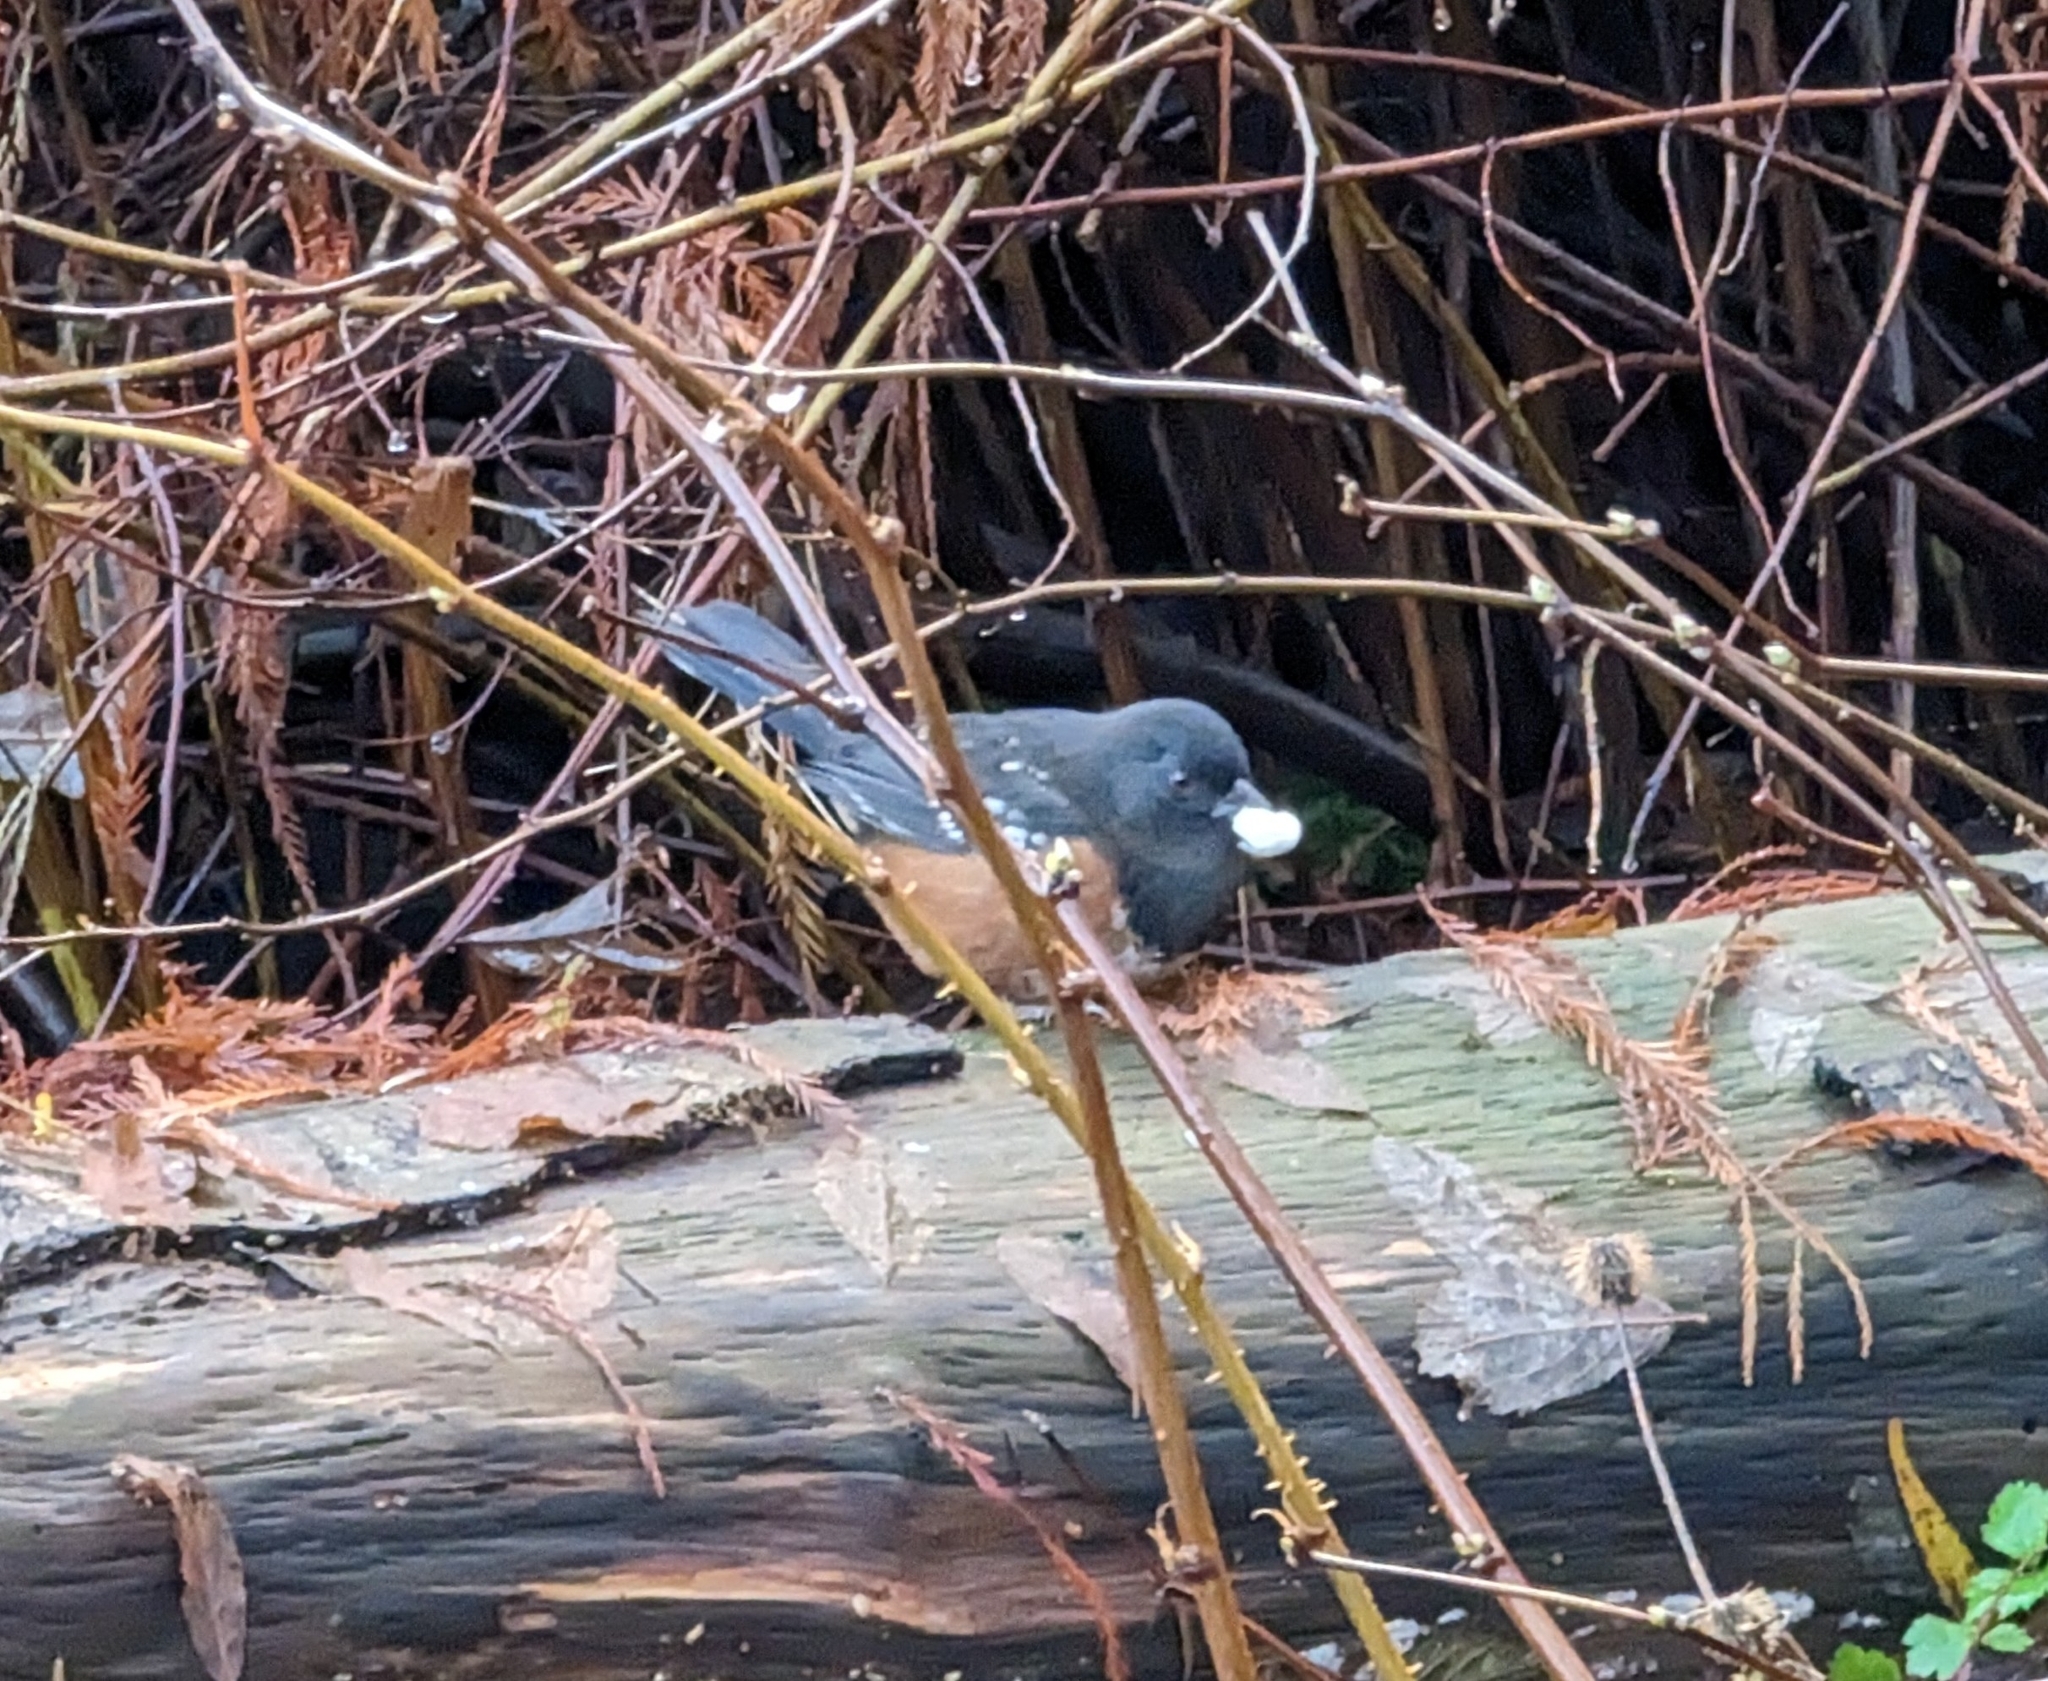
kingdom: Animalia
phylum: Chordata
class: Aves
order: Passeriformes
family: Passerellidae
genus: Pipilo
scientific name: Pipilo maculatus
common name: Spotted towhee
